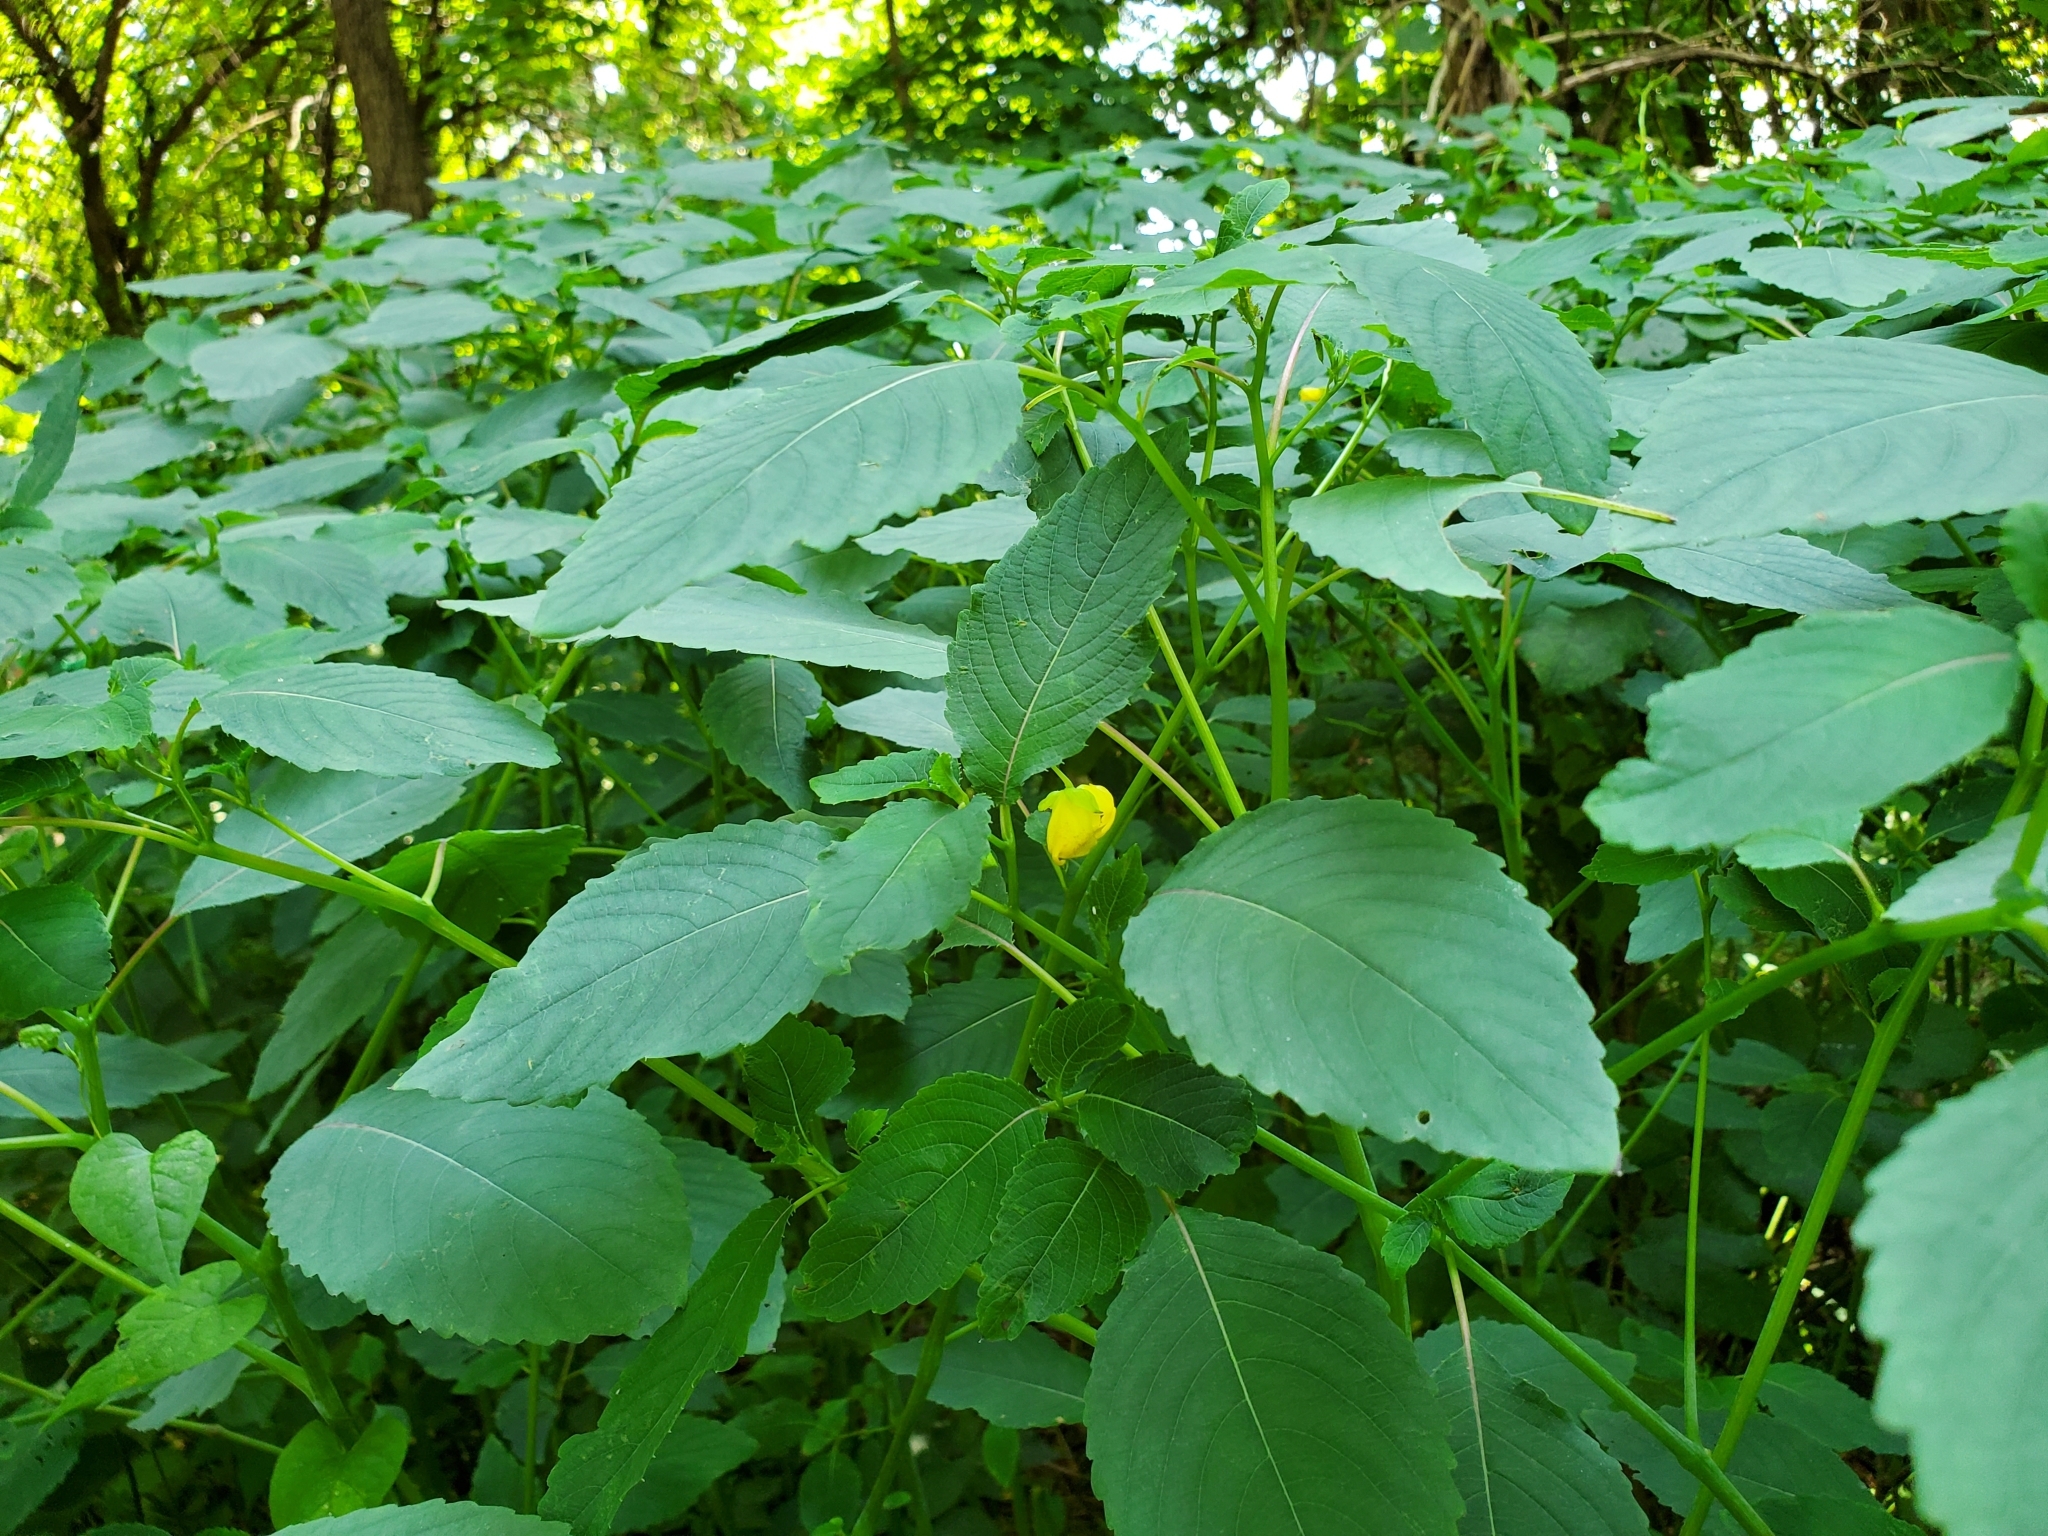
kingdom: Plantae
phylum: Tracheophyta
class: Magnoliopsida
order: Ericales
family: Balsaminaceae
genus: Impatiens
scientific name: Impatiens pallida
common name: Pale snapweed
